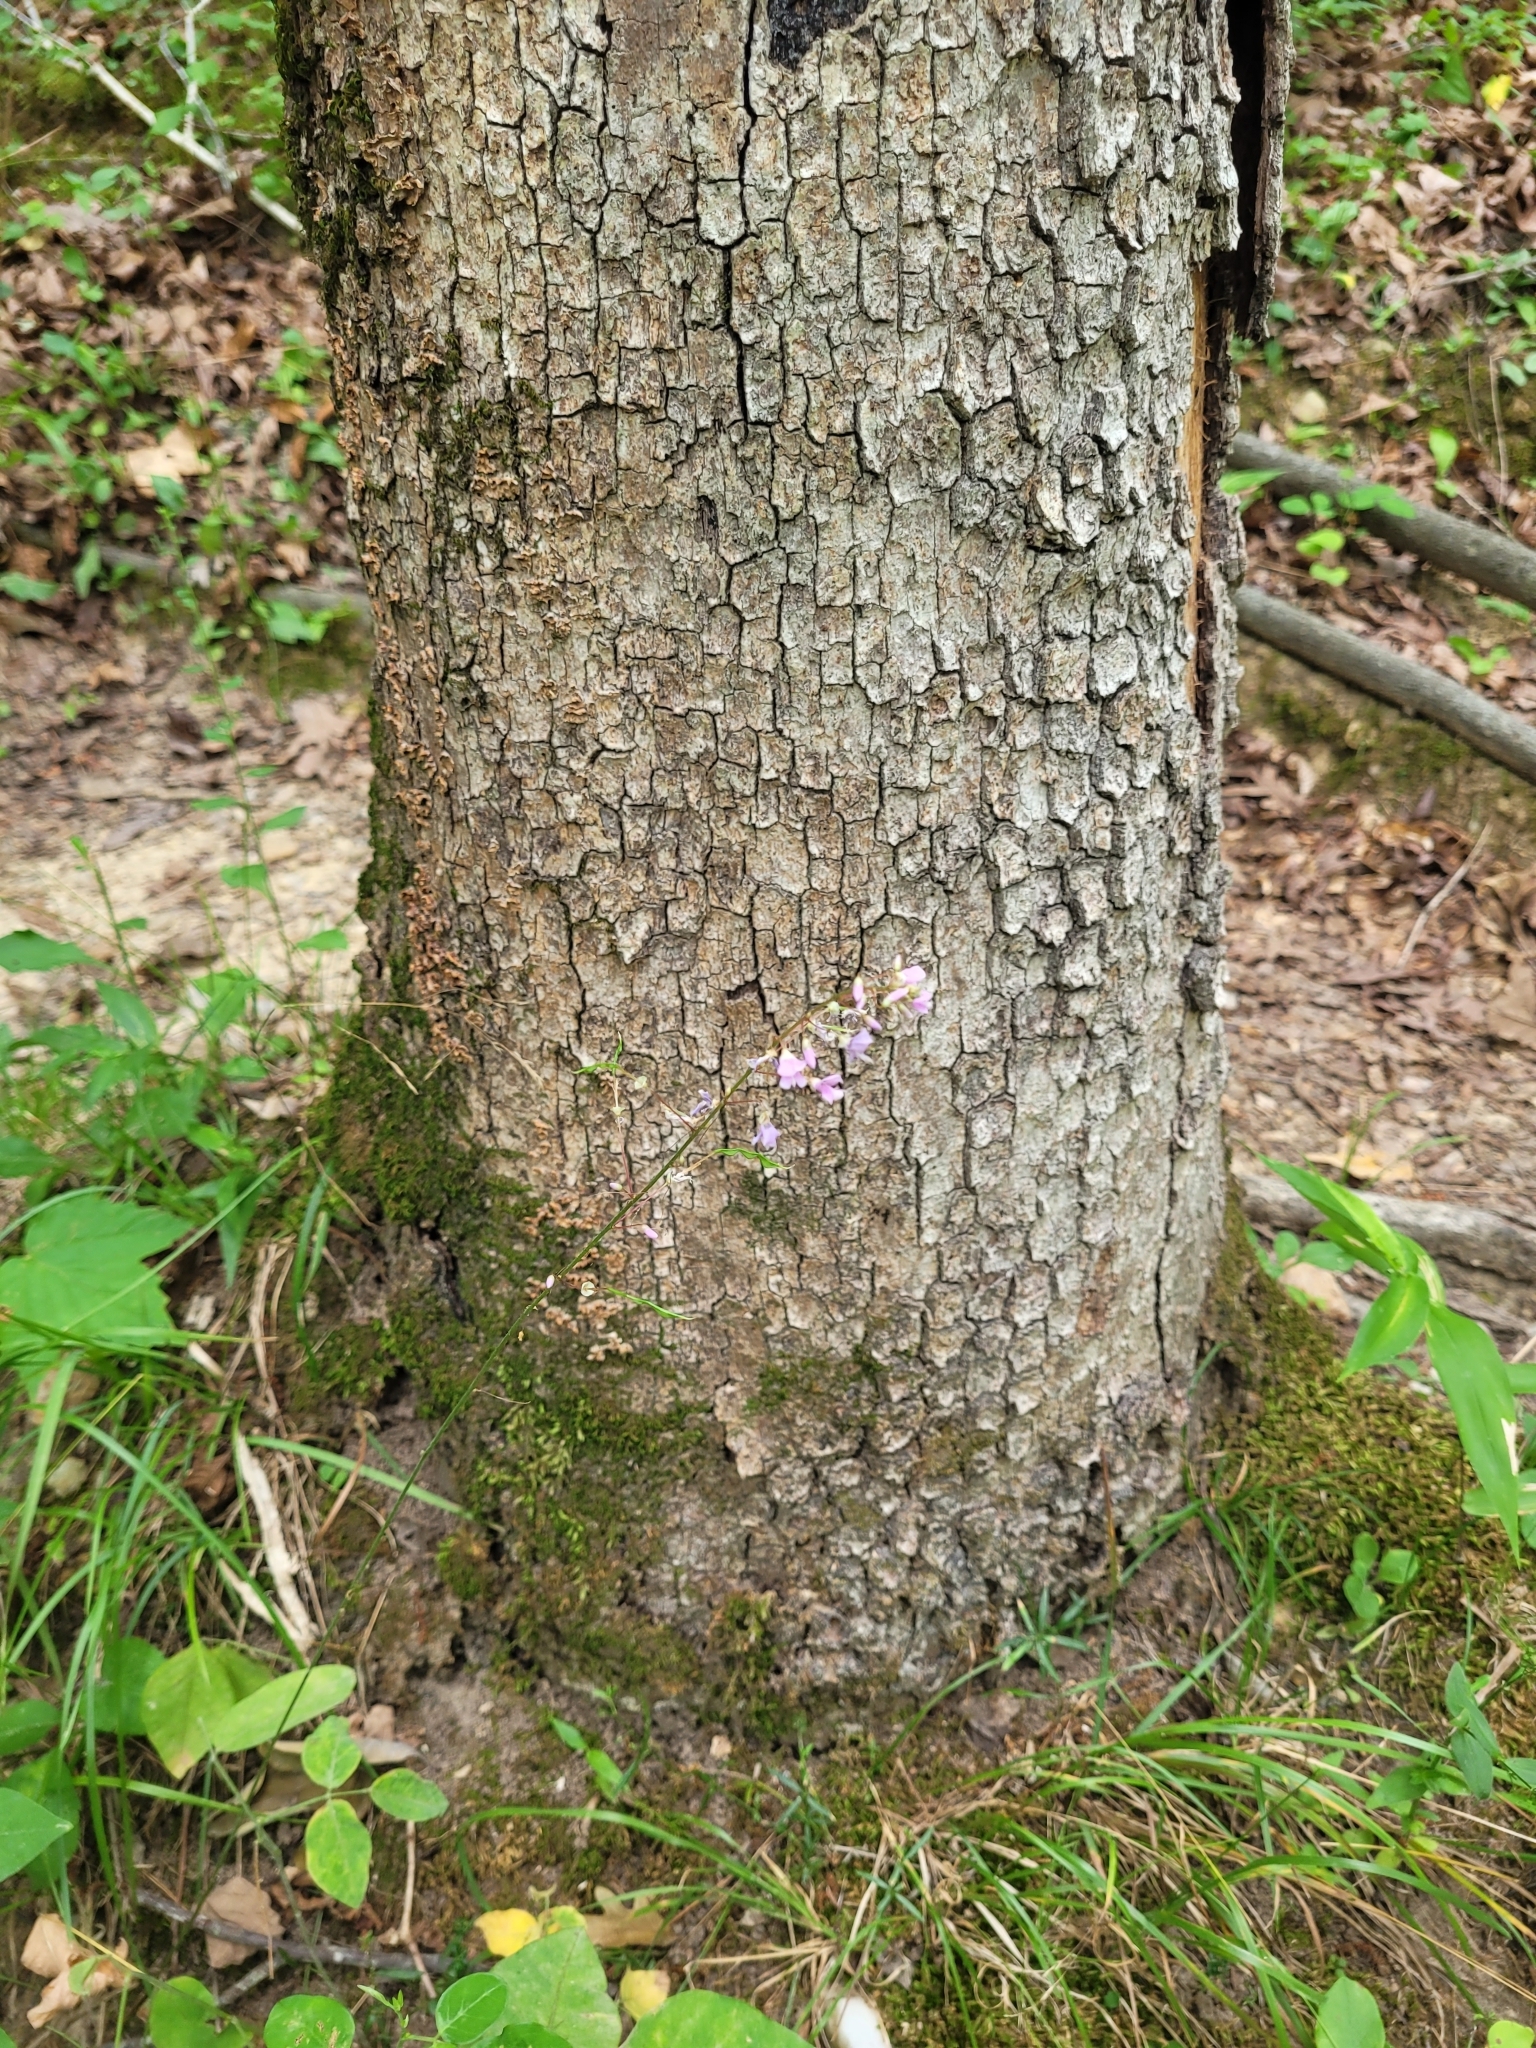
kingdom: Plantae
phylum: Tracheophyta
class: Magnoliopsida
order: Fabales
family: Fabaceae
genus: Hylodesmum
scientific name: Hylodesmum nudiflorum
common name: Bare-stemmed tick-trefoil
